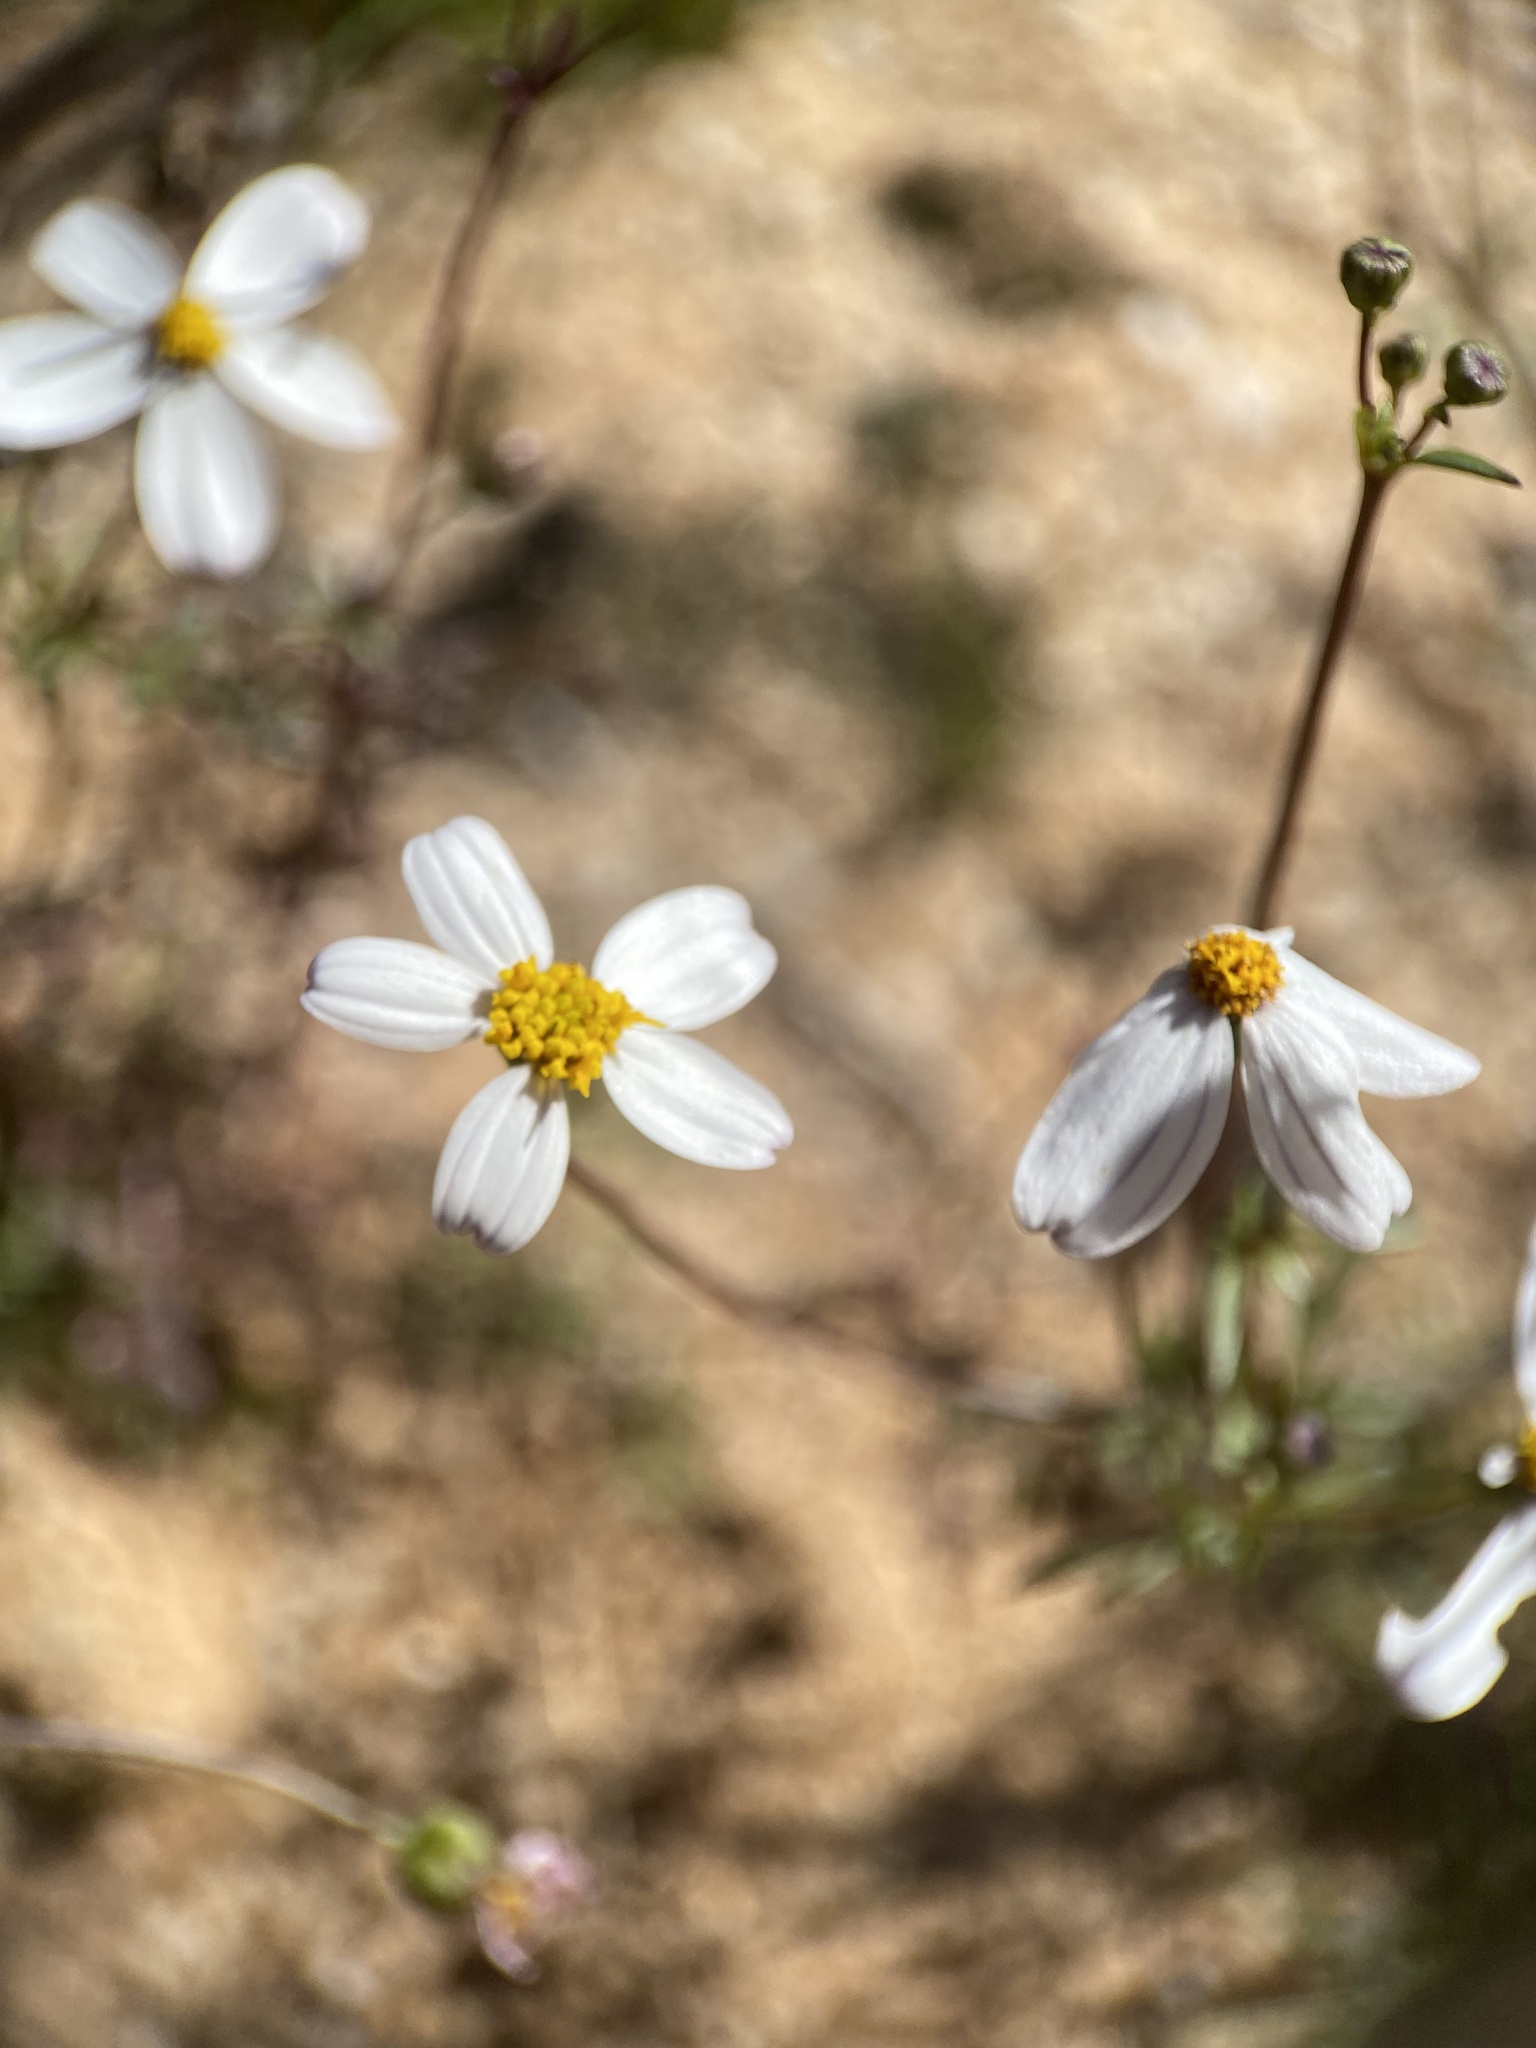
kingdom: Plantae
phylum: Tracheophyta
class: Magnoliopsida
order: Asterales
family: Asteraceae
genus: Coreocarpus
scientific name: Coreocarpus parthenioides
